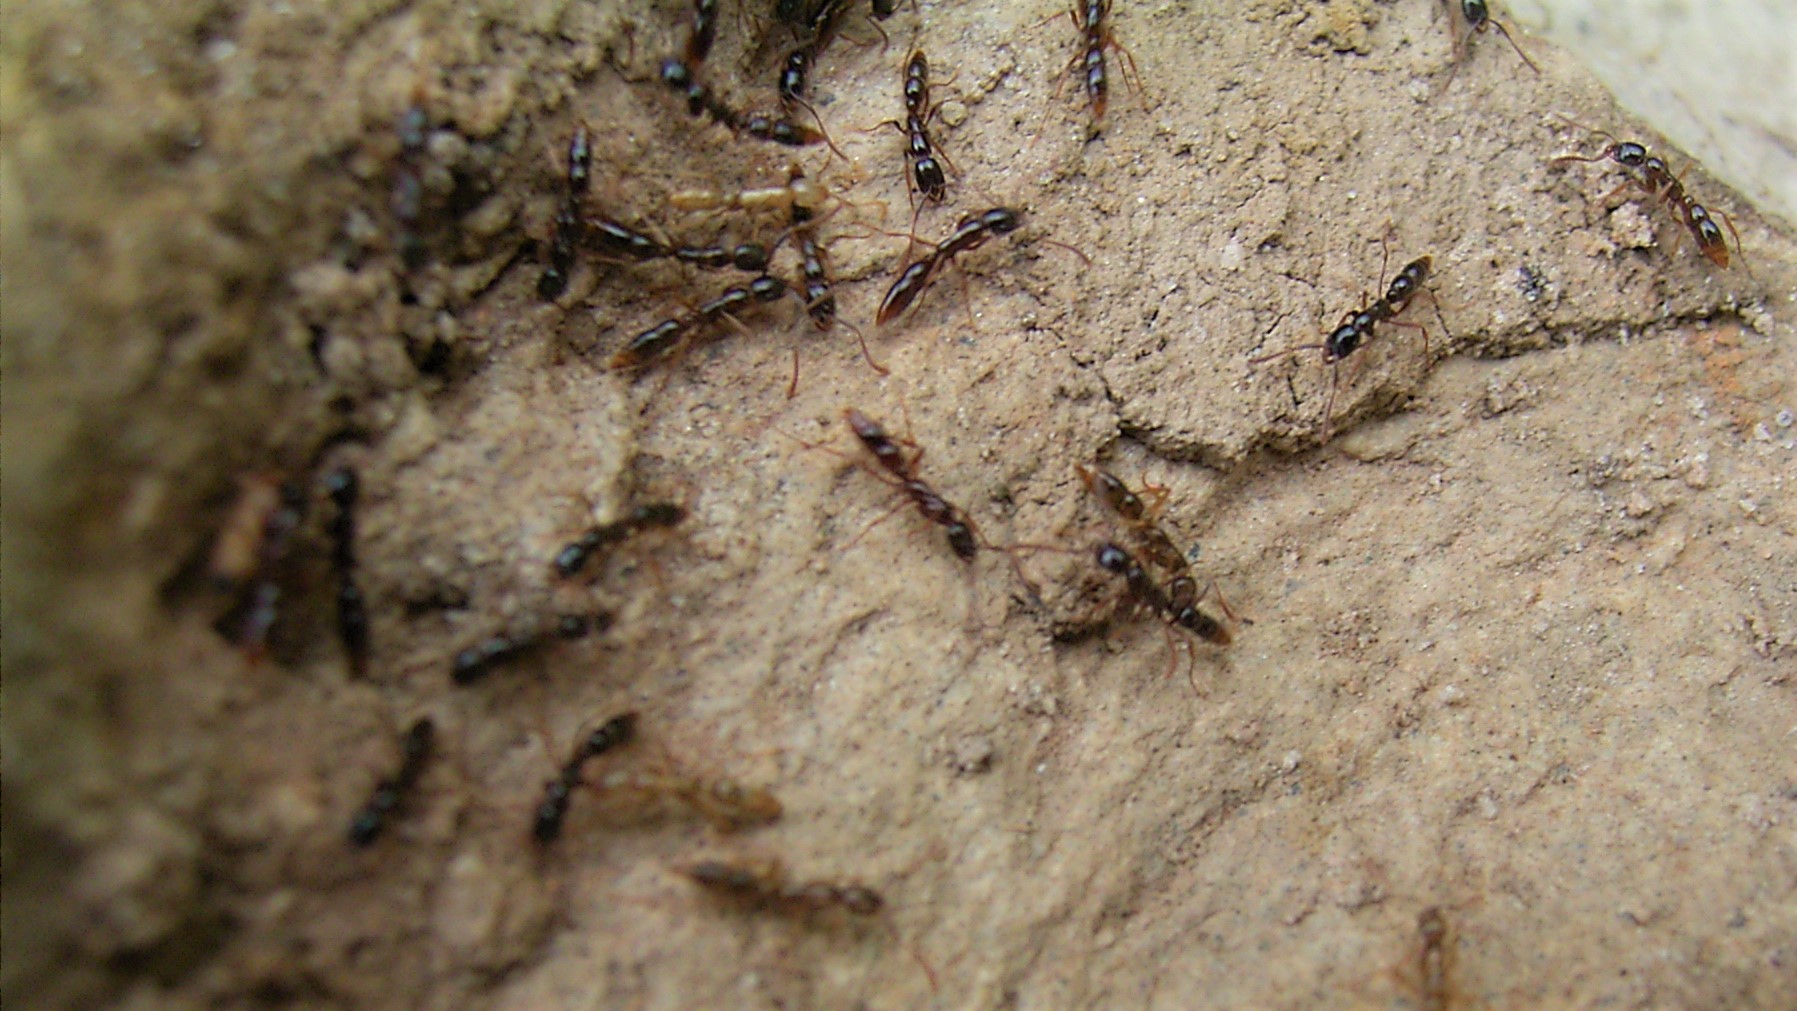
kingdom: Animalia
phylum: Arthropoda
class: Insecta
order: Hymenoptera
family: Formicidae
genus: Leptogenys
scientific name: Leptogenys castanea
